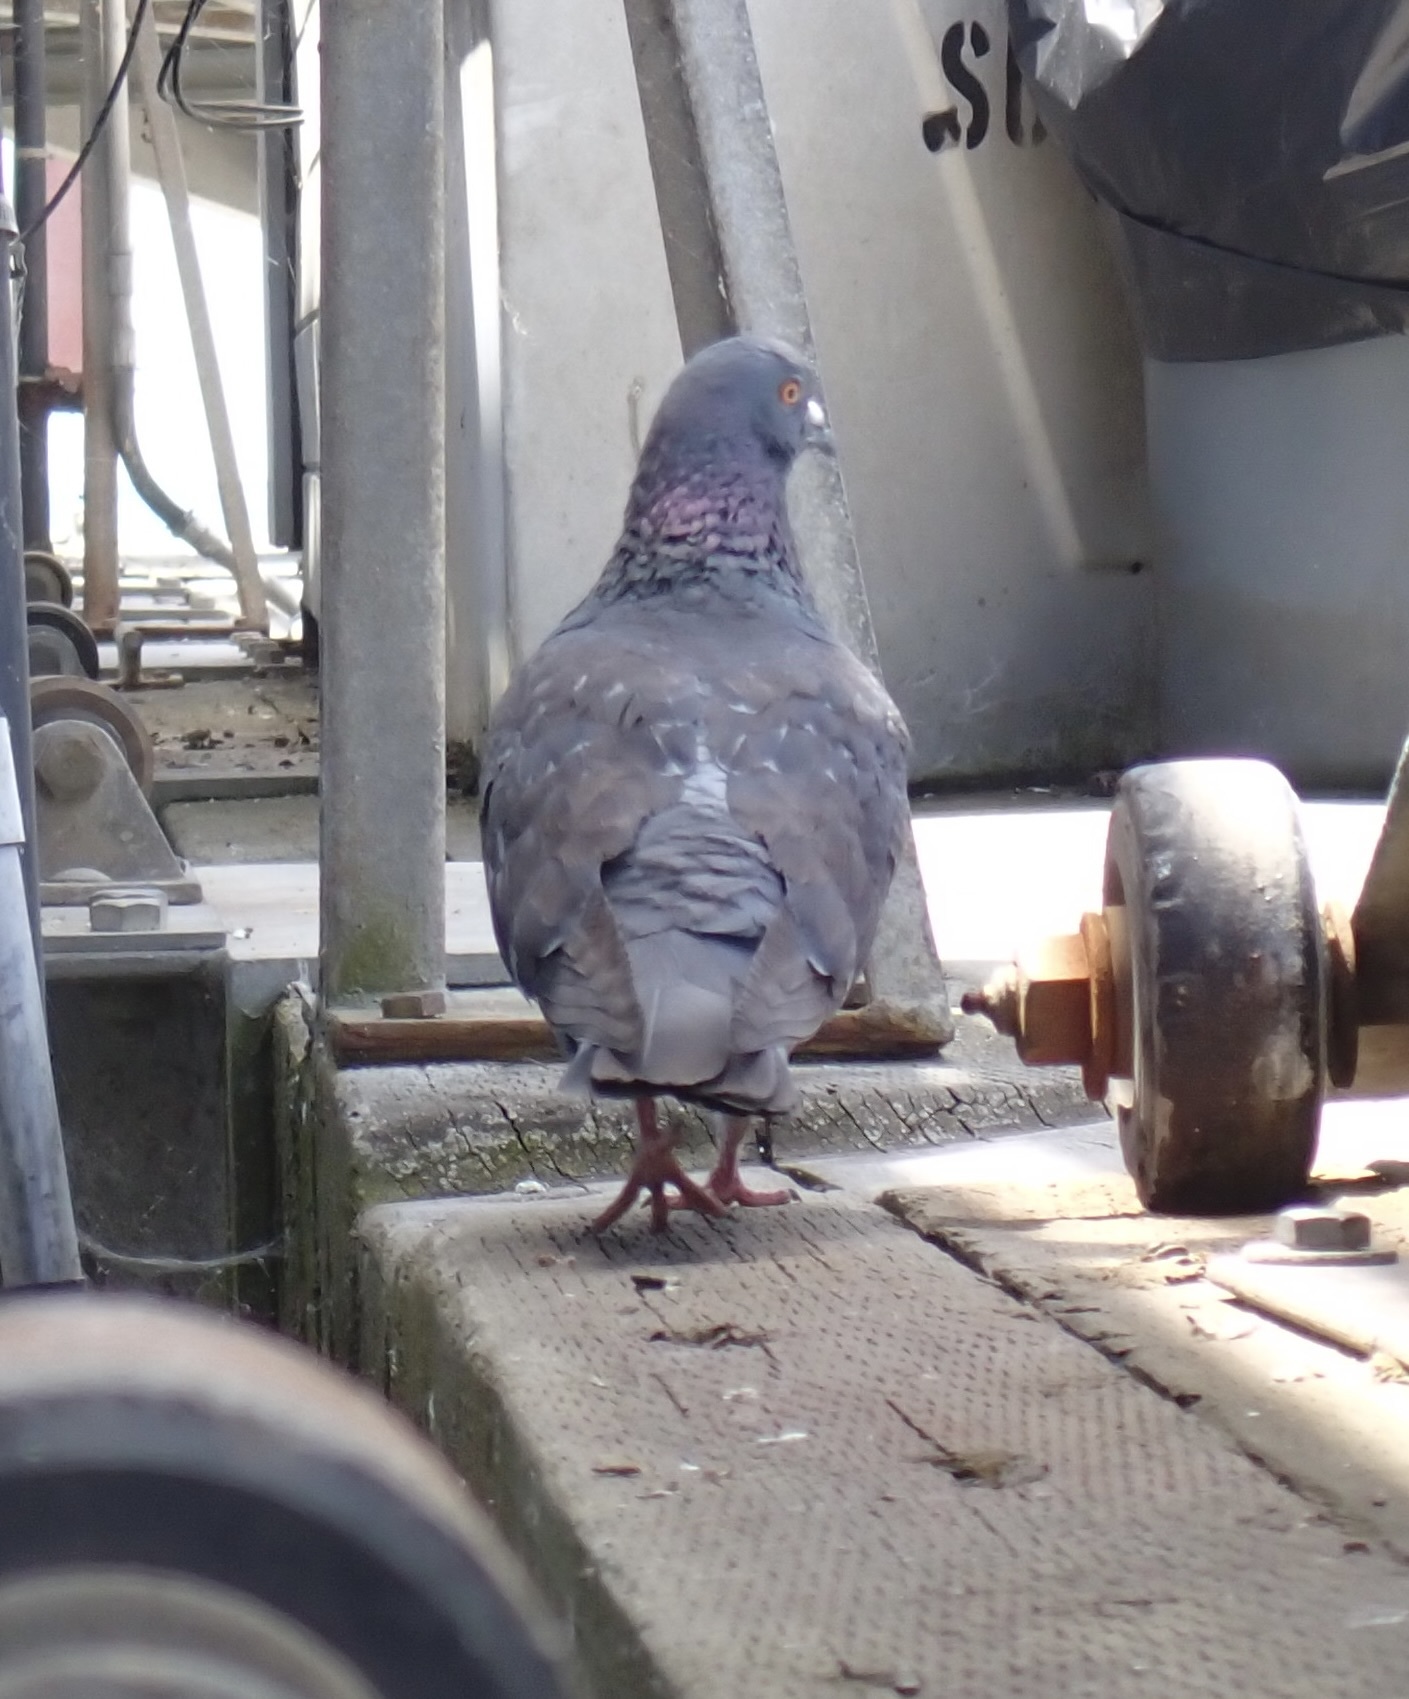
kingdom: Animalia
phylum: Chordata
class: Aves
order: Columbiformes
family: Columbidae
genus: Columba
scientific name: Columba livia
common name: Rock pigeon
